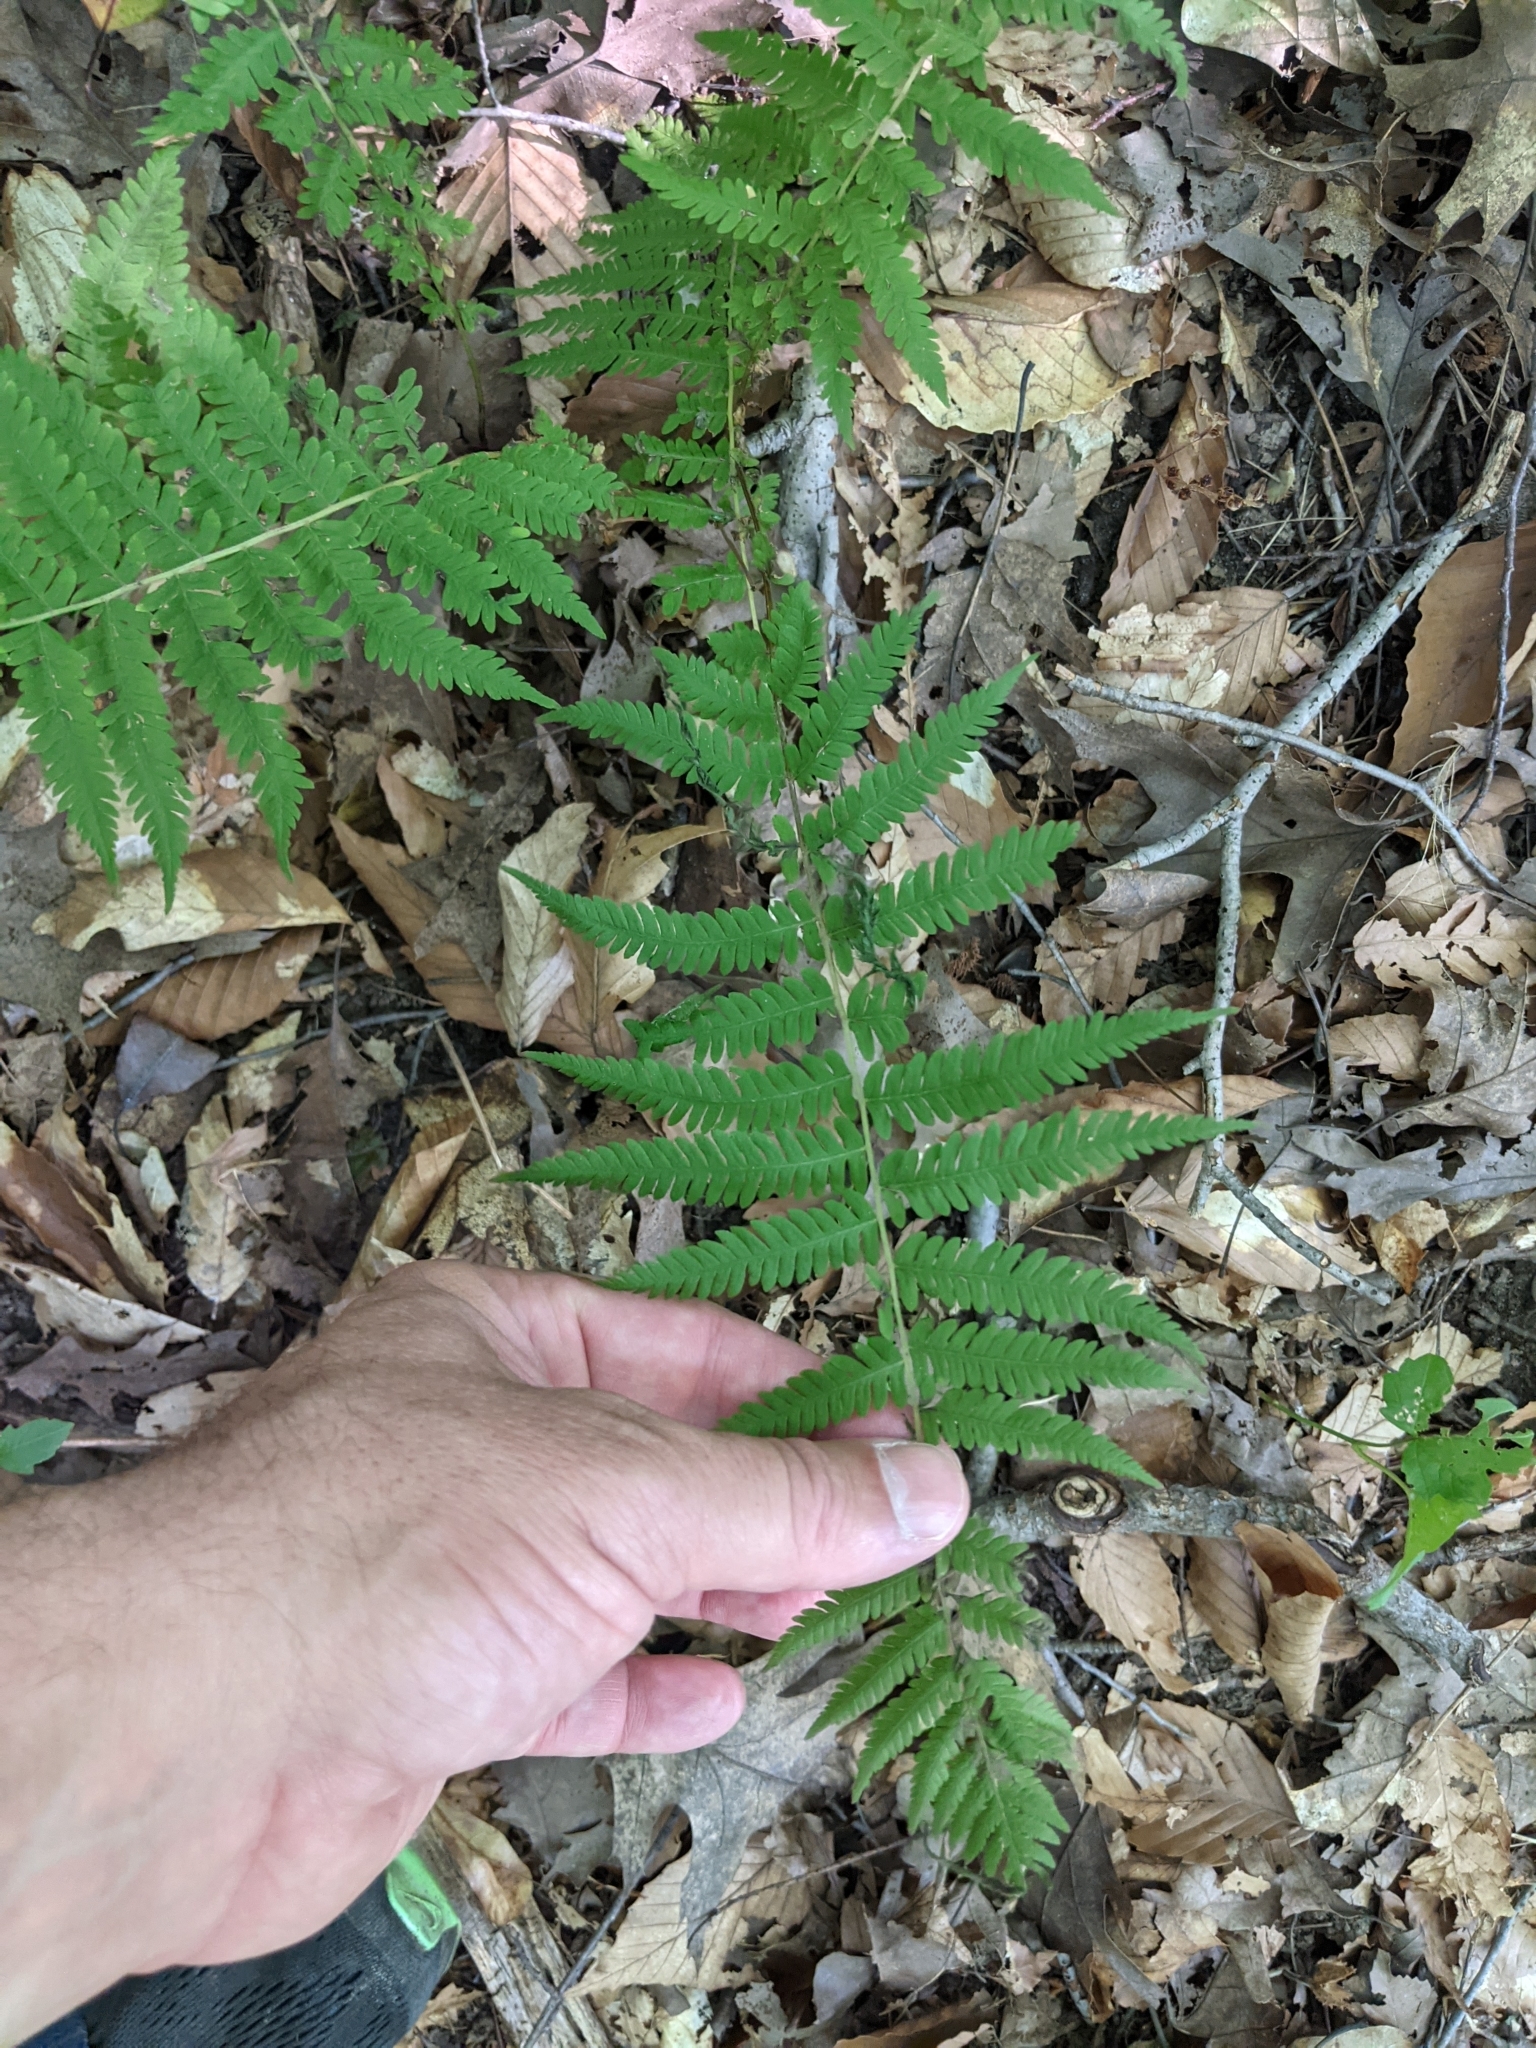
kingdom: Plantae
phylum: Tracheophyta
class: Polypodiopsida
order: Polypodiales
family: Thelypteridaceae
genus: Amauropelta
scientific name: Amauropelta noveboracensis
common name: New york fern
